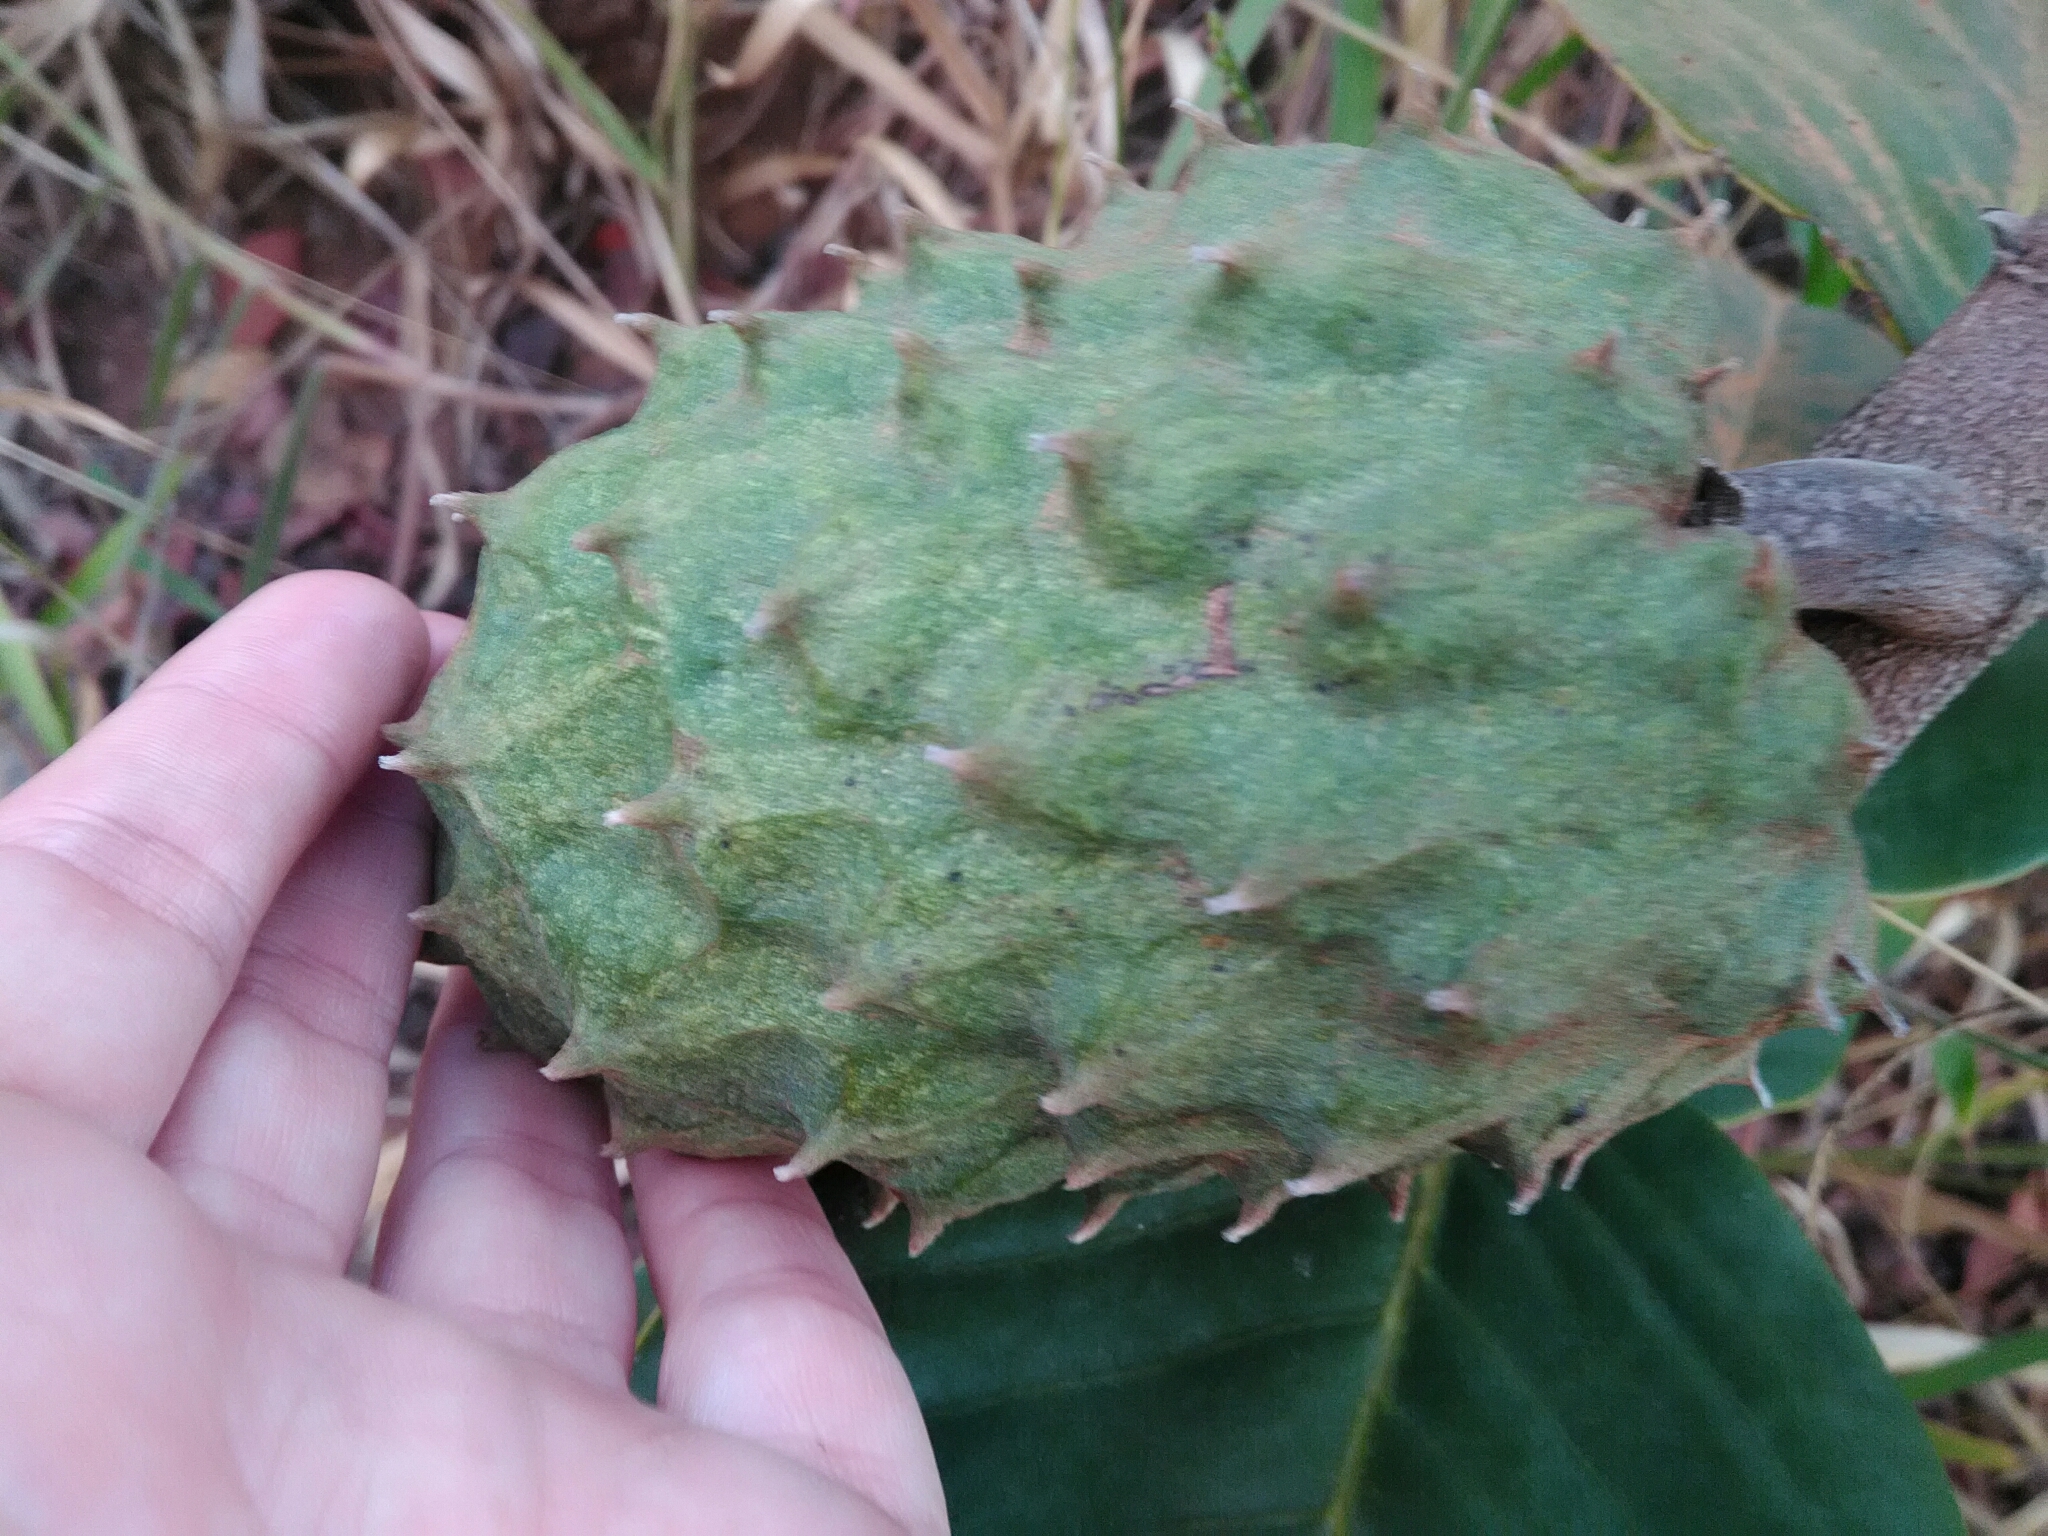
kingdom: Plantae
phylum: Tracheophyta
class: Magnoliopsida
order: Magnoliales
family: Annonaceae
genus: Annona
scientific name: Annona coriacea
